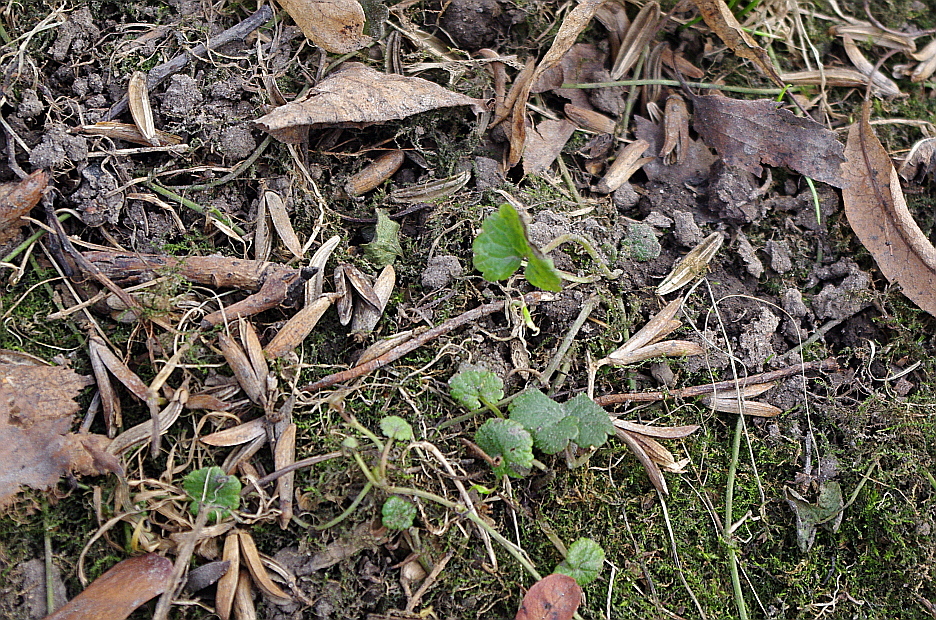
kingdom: Plantae
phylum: Tracheophyta
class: Magnoliopsida
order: Lamiales
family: Lamiaceae
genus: Glechoma
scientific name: Glechoma hederacea
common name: Ground ivy
